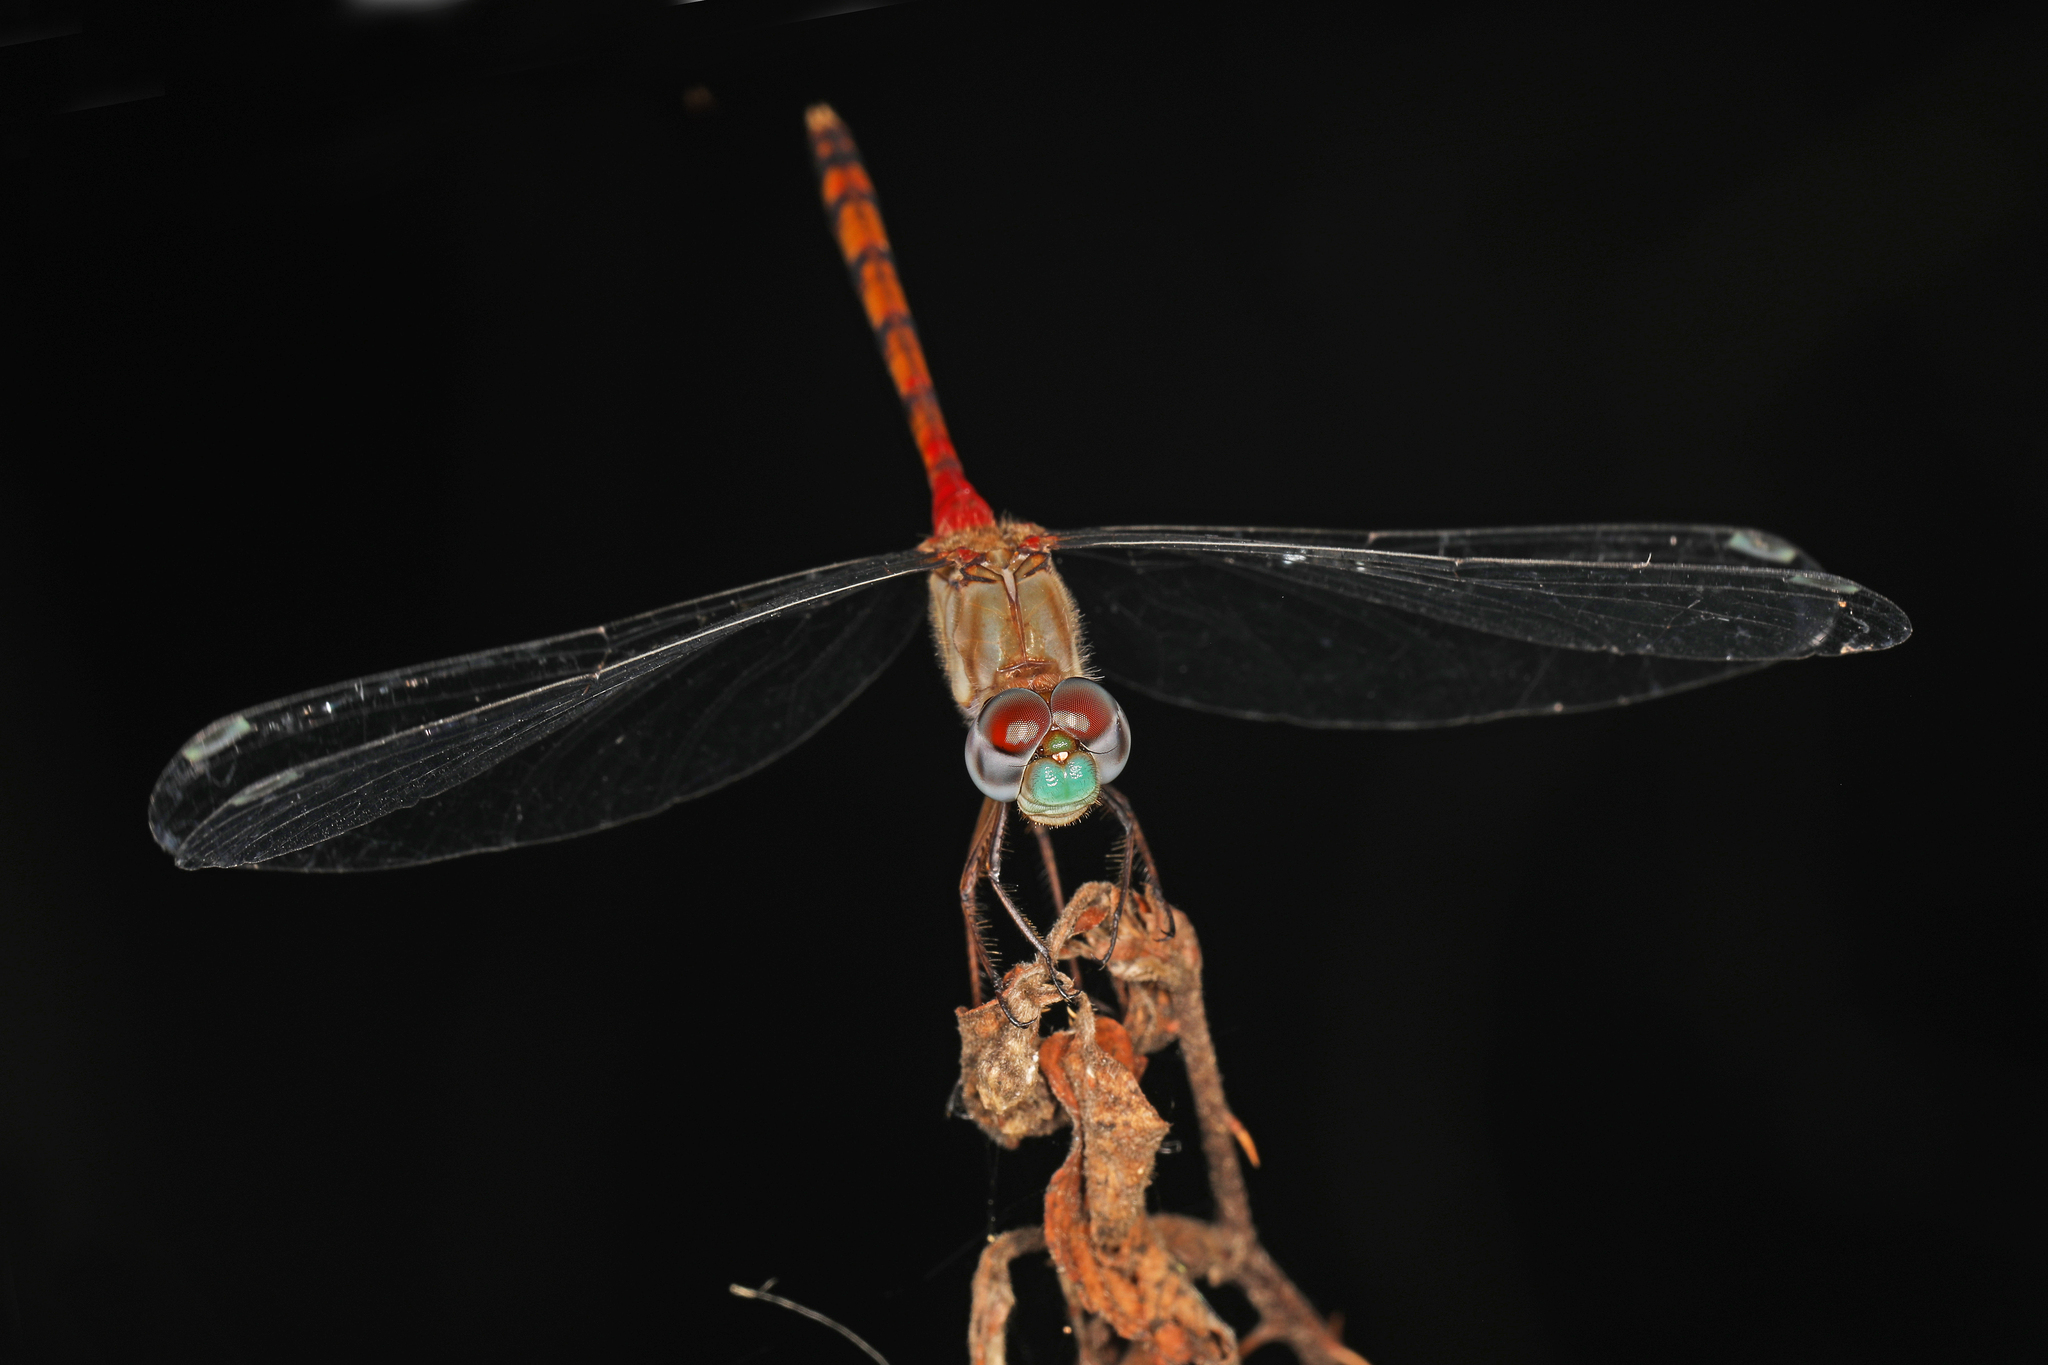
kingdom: Animalia
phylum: Arthropoda
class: Insecta
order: Odonata
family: Libellulidae
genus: Sympetrum
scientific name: Sympetrum ambiguum
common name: Blue-faced meadowhawk
